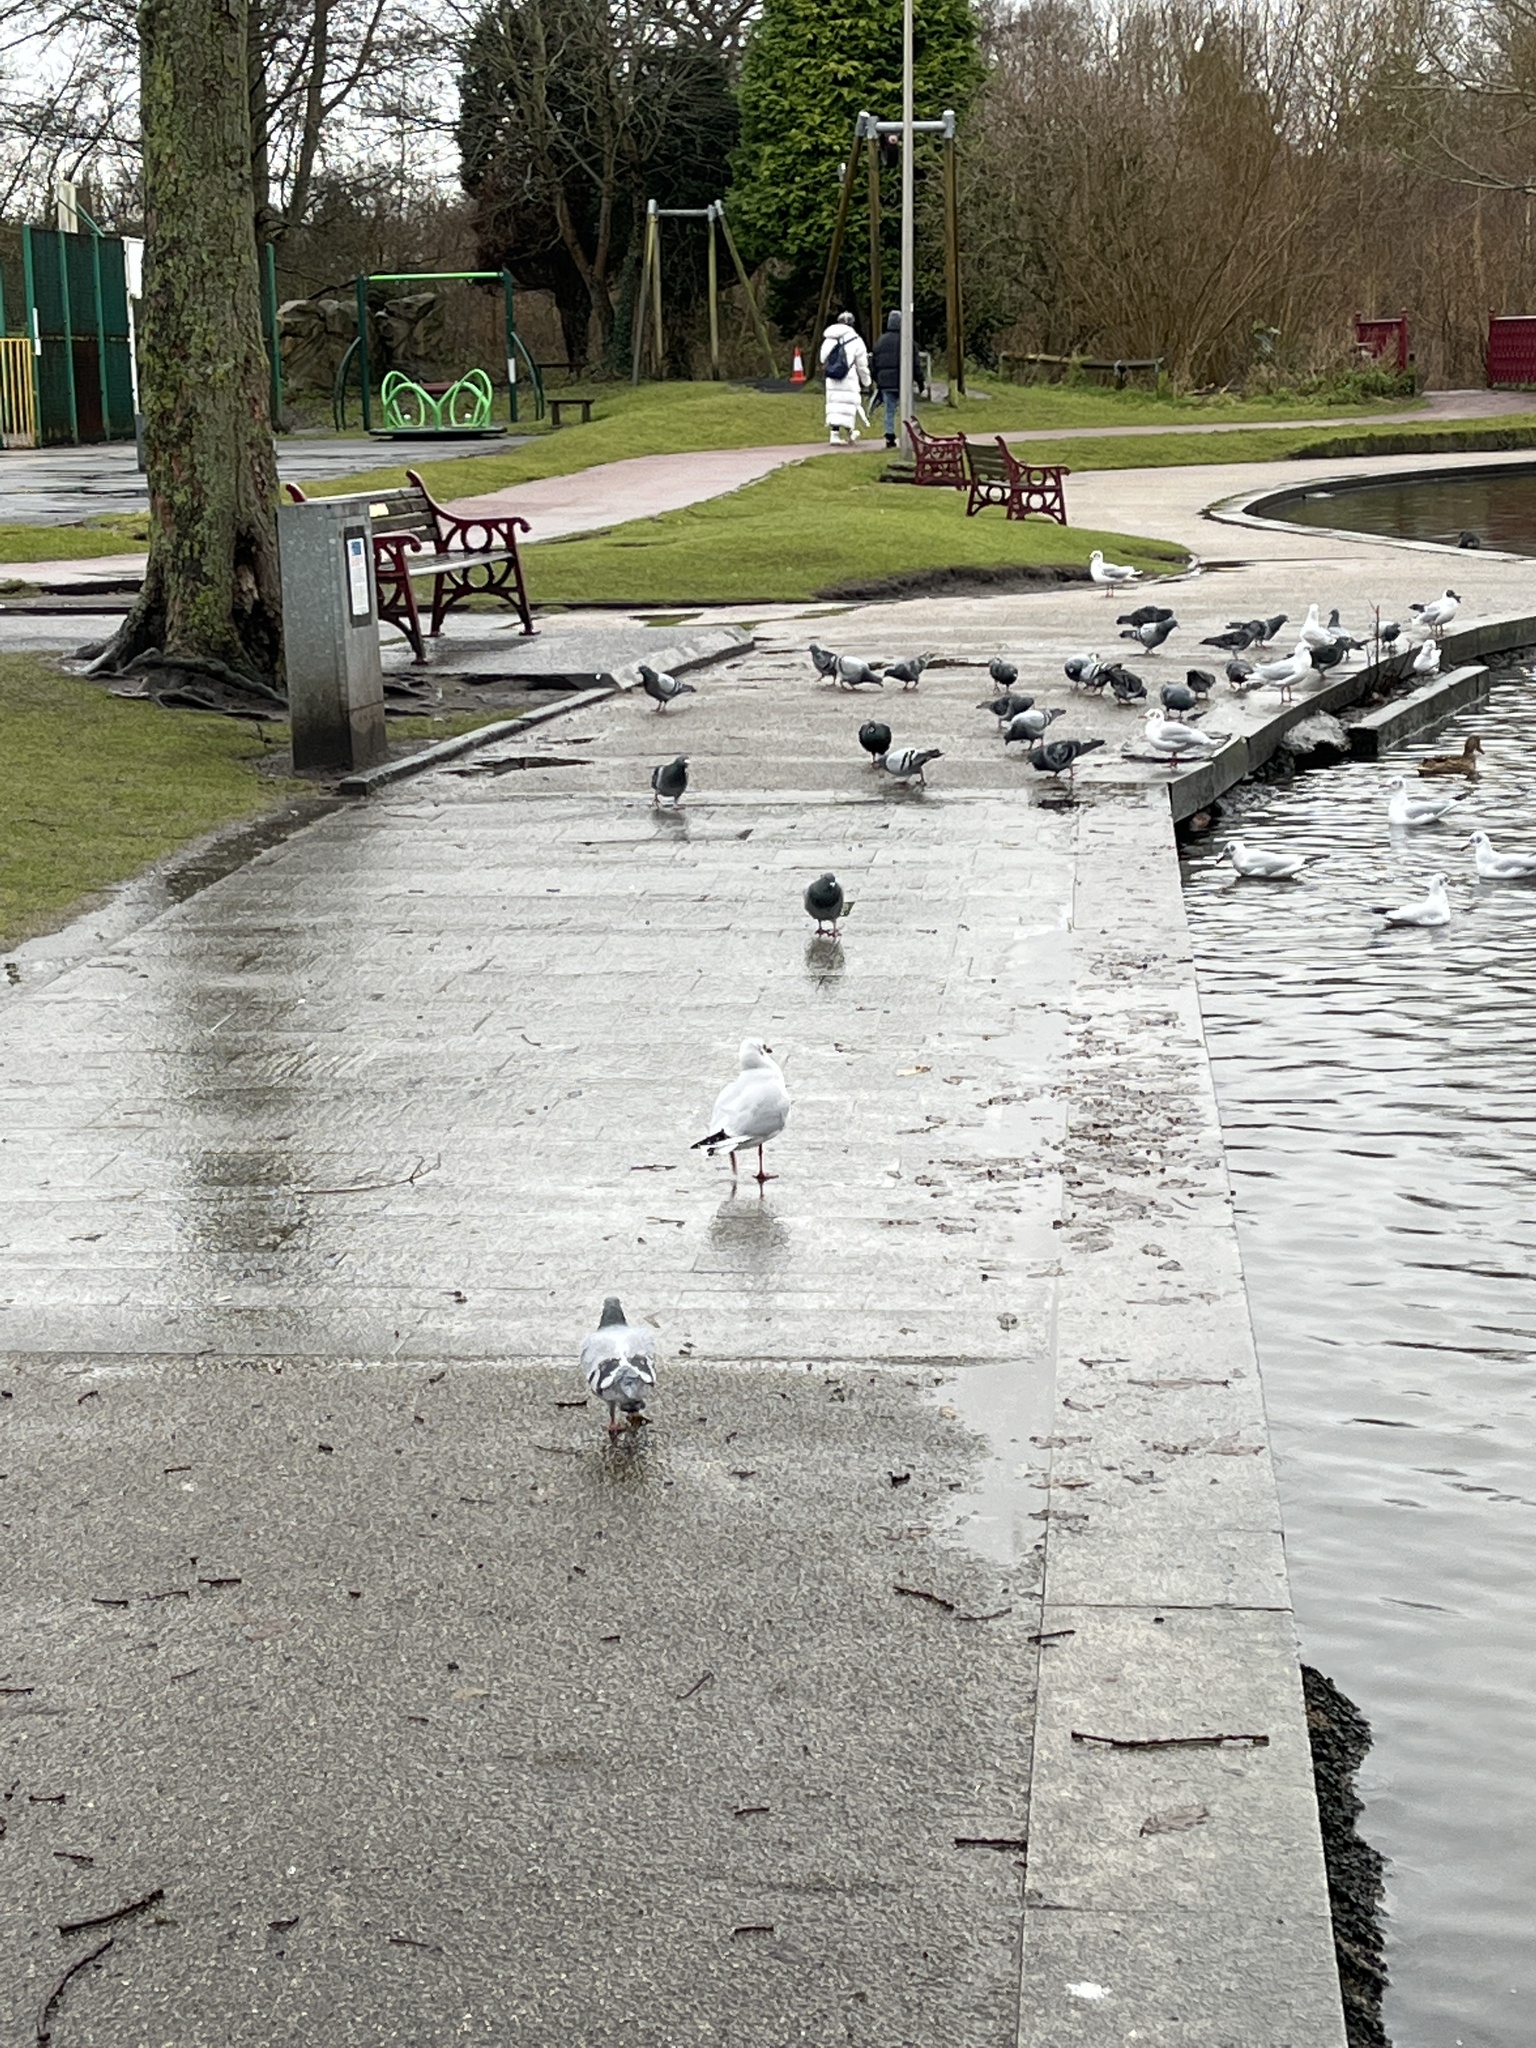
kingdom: Animalia
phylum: Chordata
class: Aves
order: Charadriiformes
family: Laridae
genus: Chroicocephalus
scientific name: Chroicocephalus ridibundus
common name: Black-headed gull
